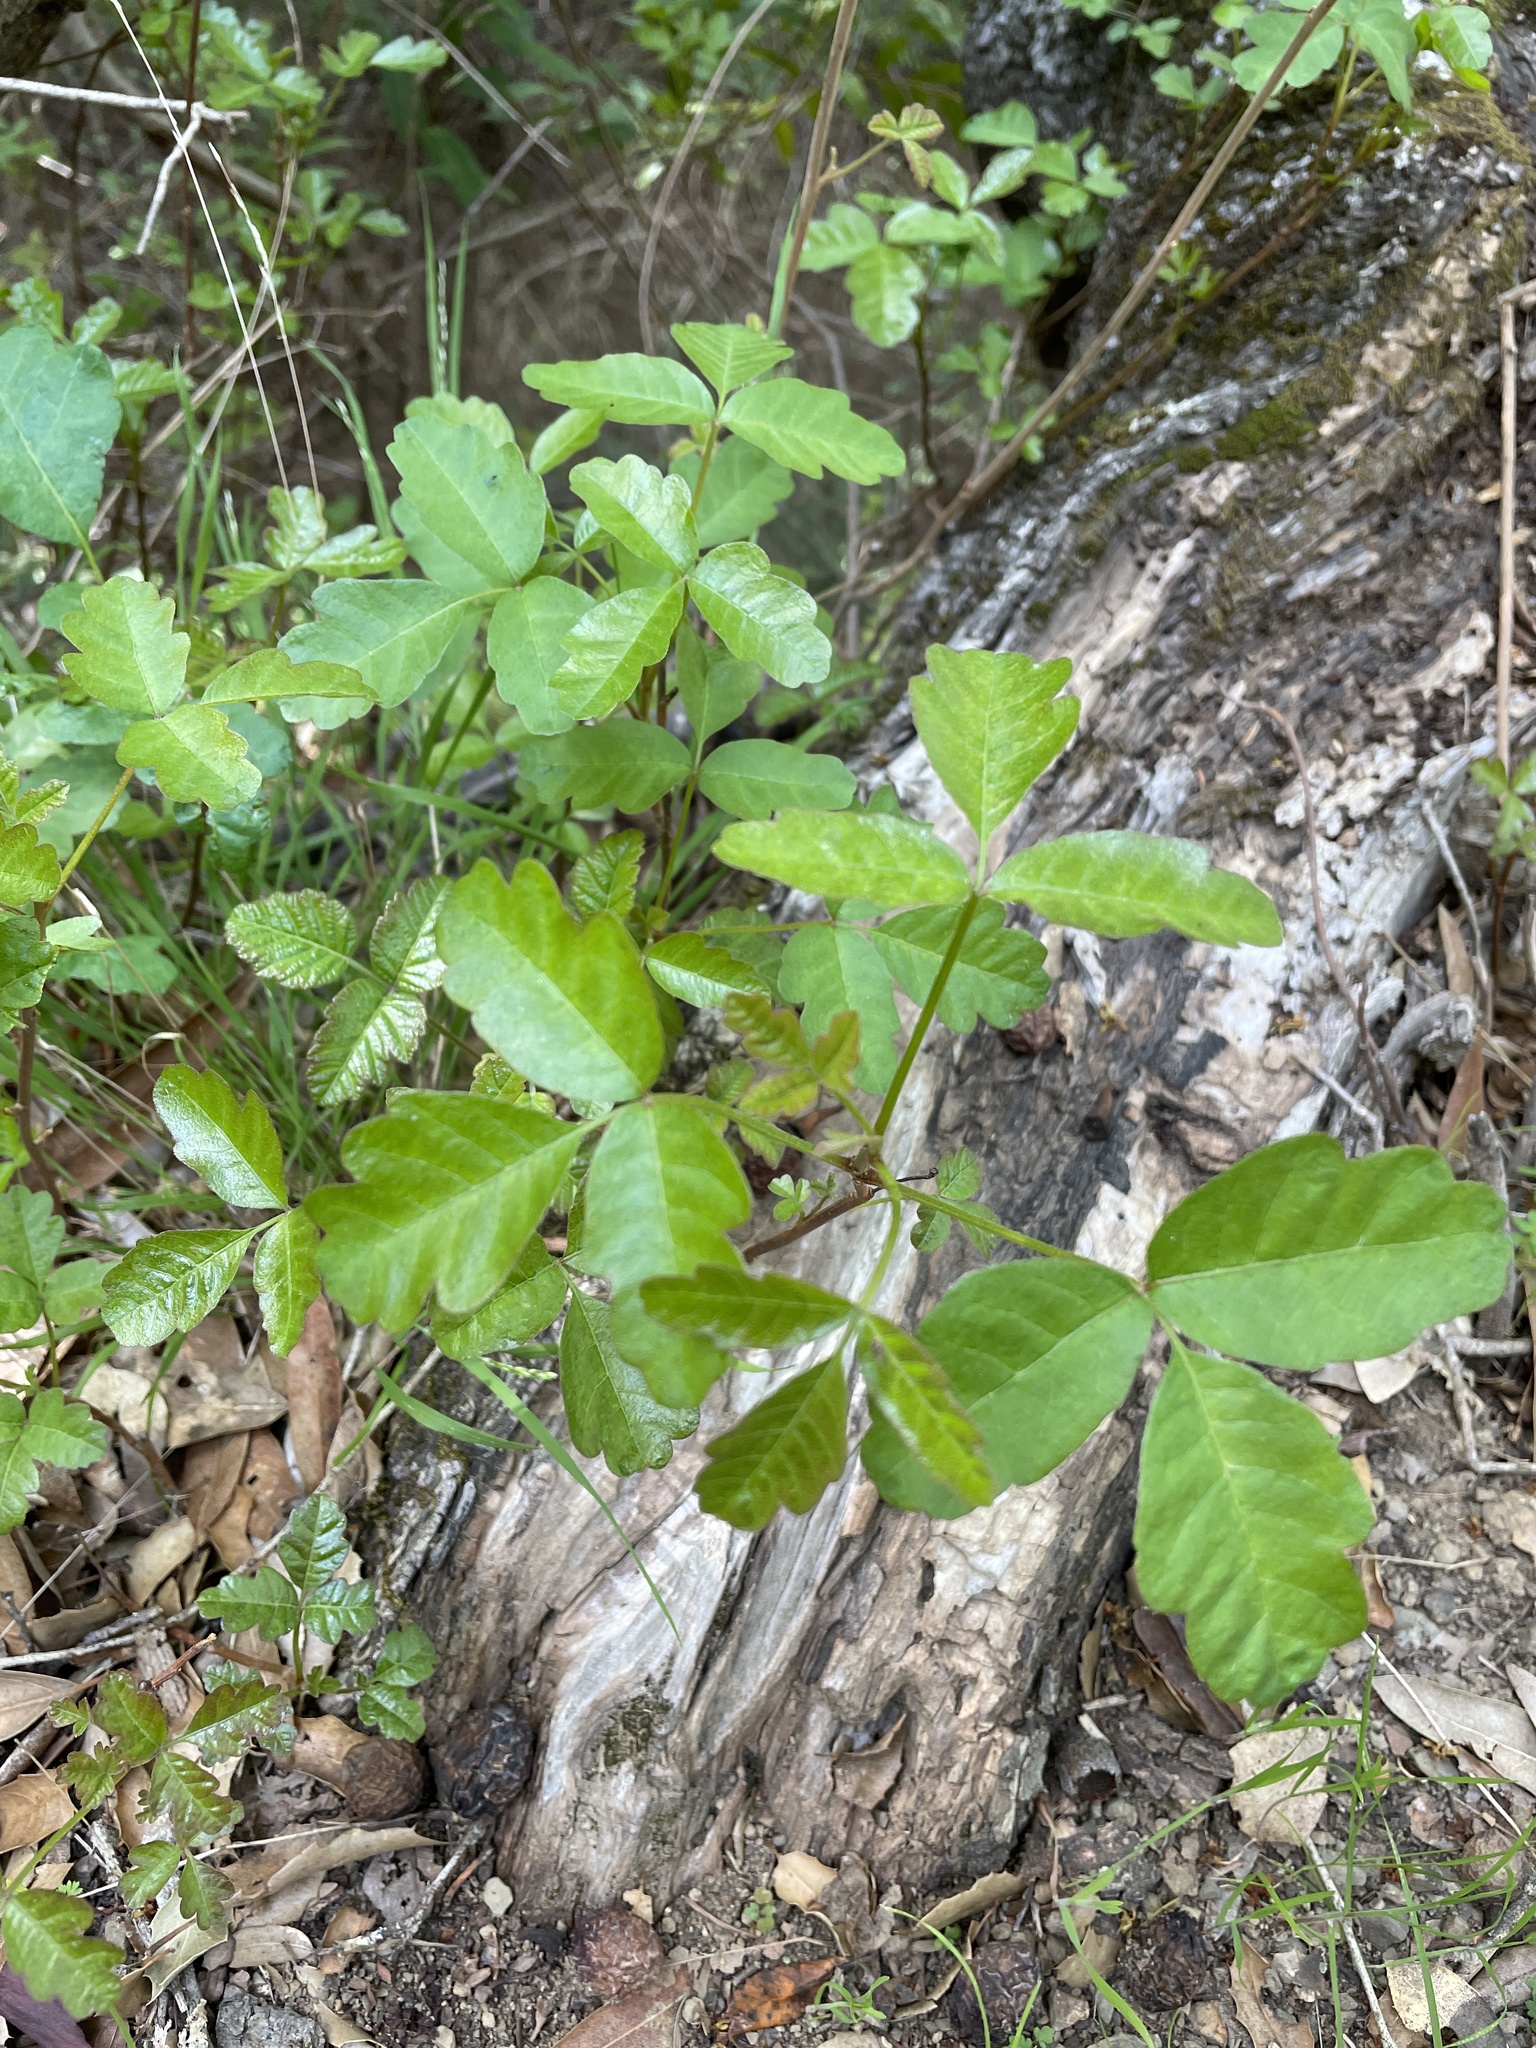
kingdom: Plantae
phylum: Tracheophyta
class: Magnoliopsida
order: Sapindales
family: Anacardiaceae
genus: Toxicodendron
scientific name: Toxicodendron diversilobum
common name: Pacific poison-oak
